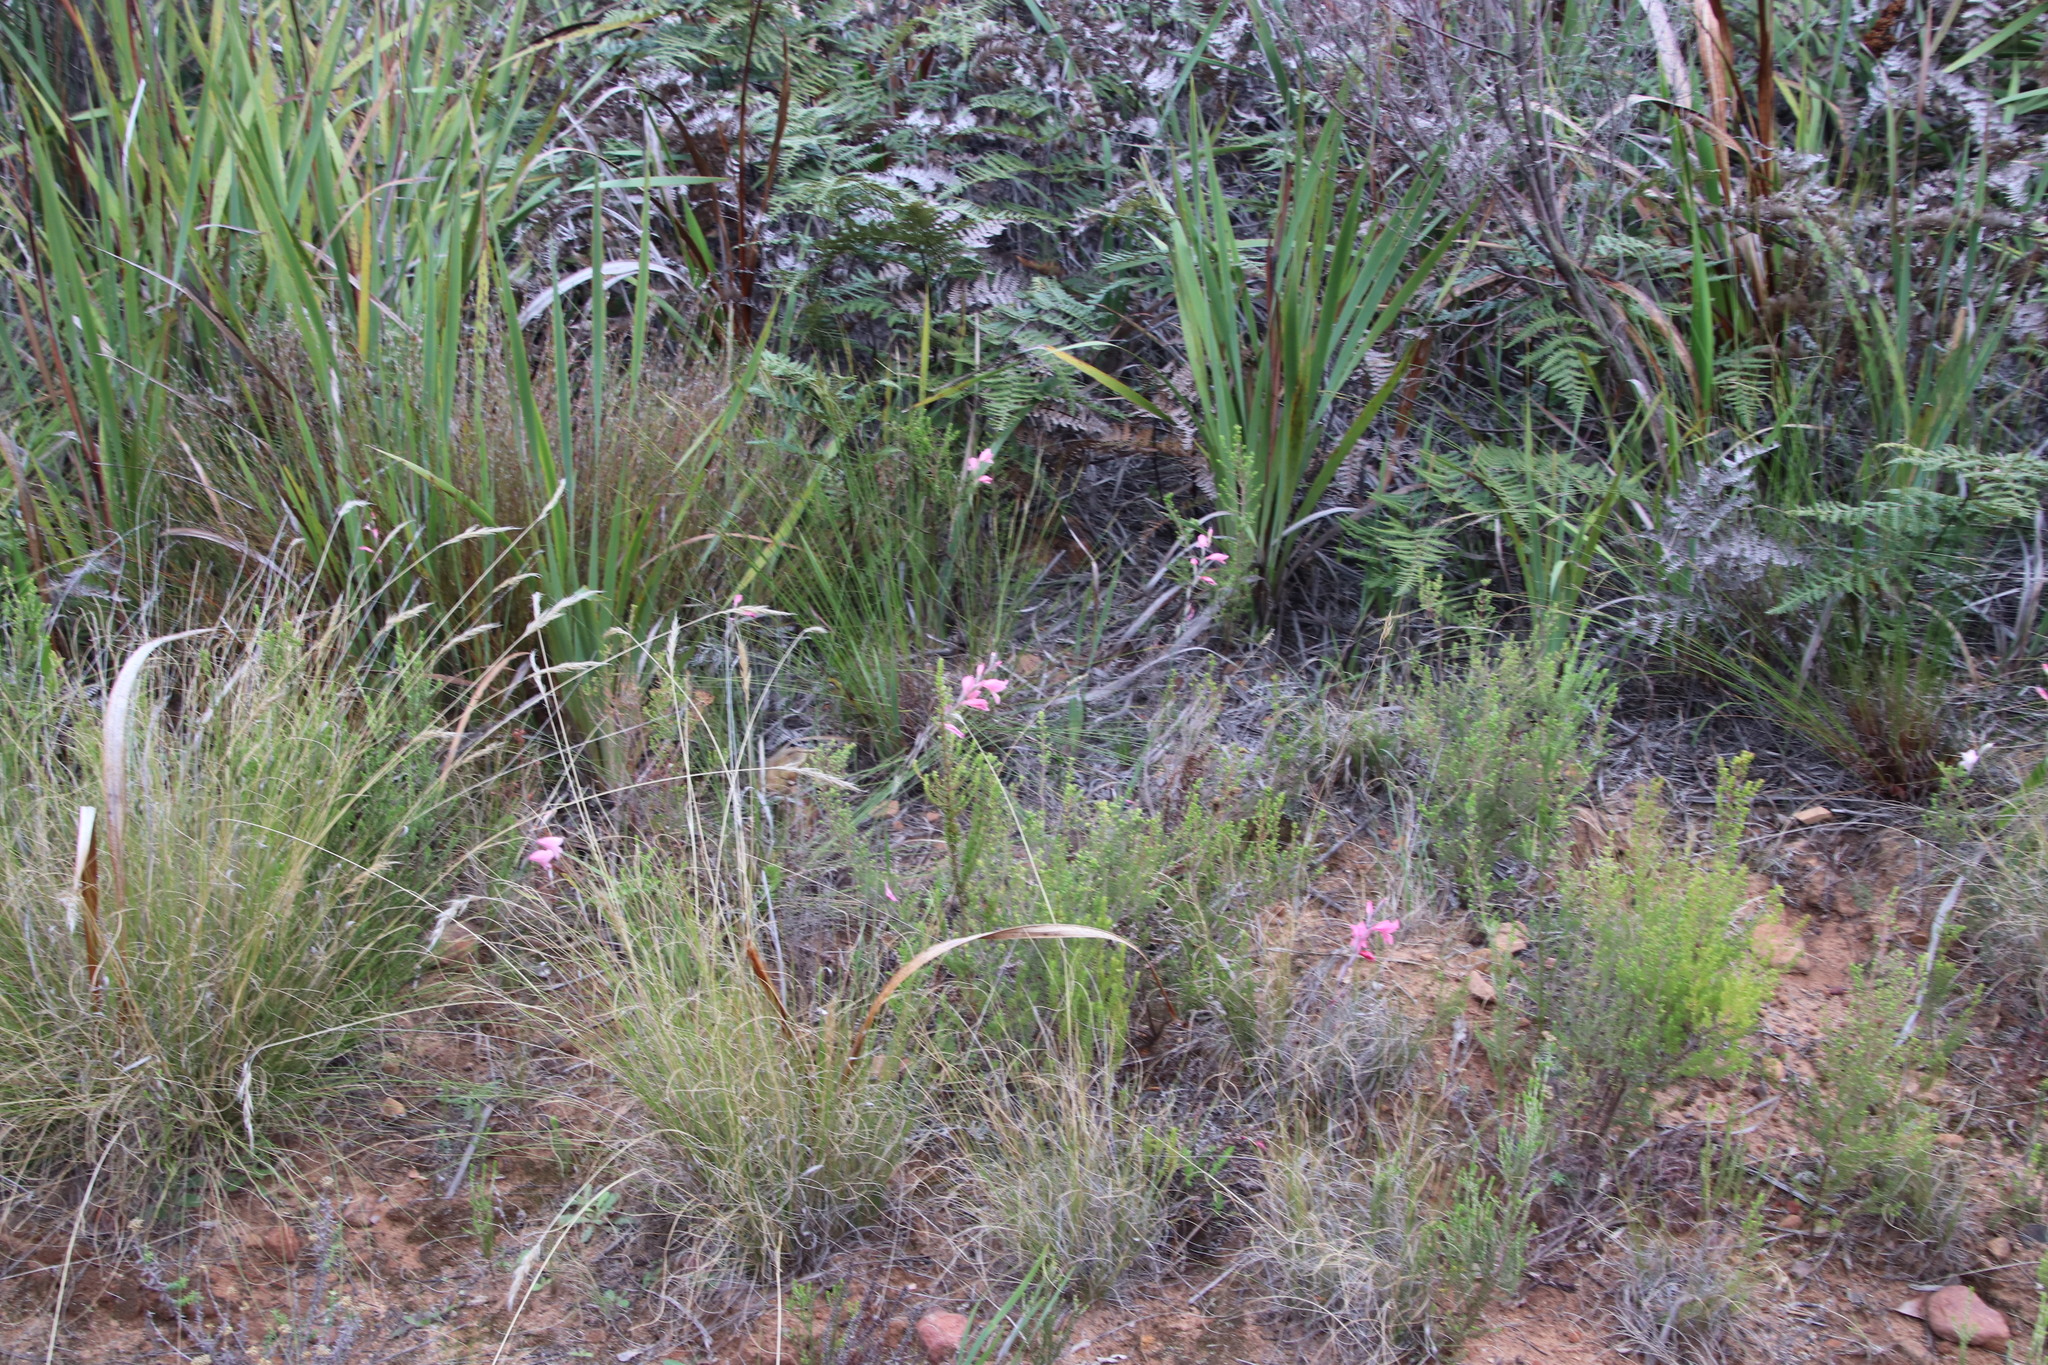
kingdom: Plantae
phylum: Tracheophyta
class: Liliopsida
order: Asparagales
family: Iridaceae
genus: Gladiolus
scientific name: Gladiolus brevifolius
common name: March pypie
